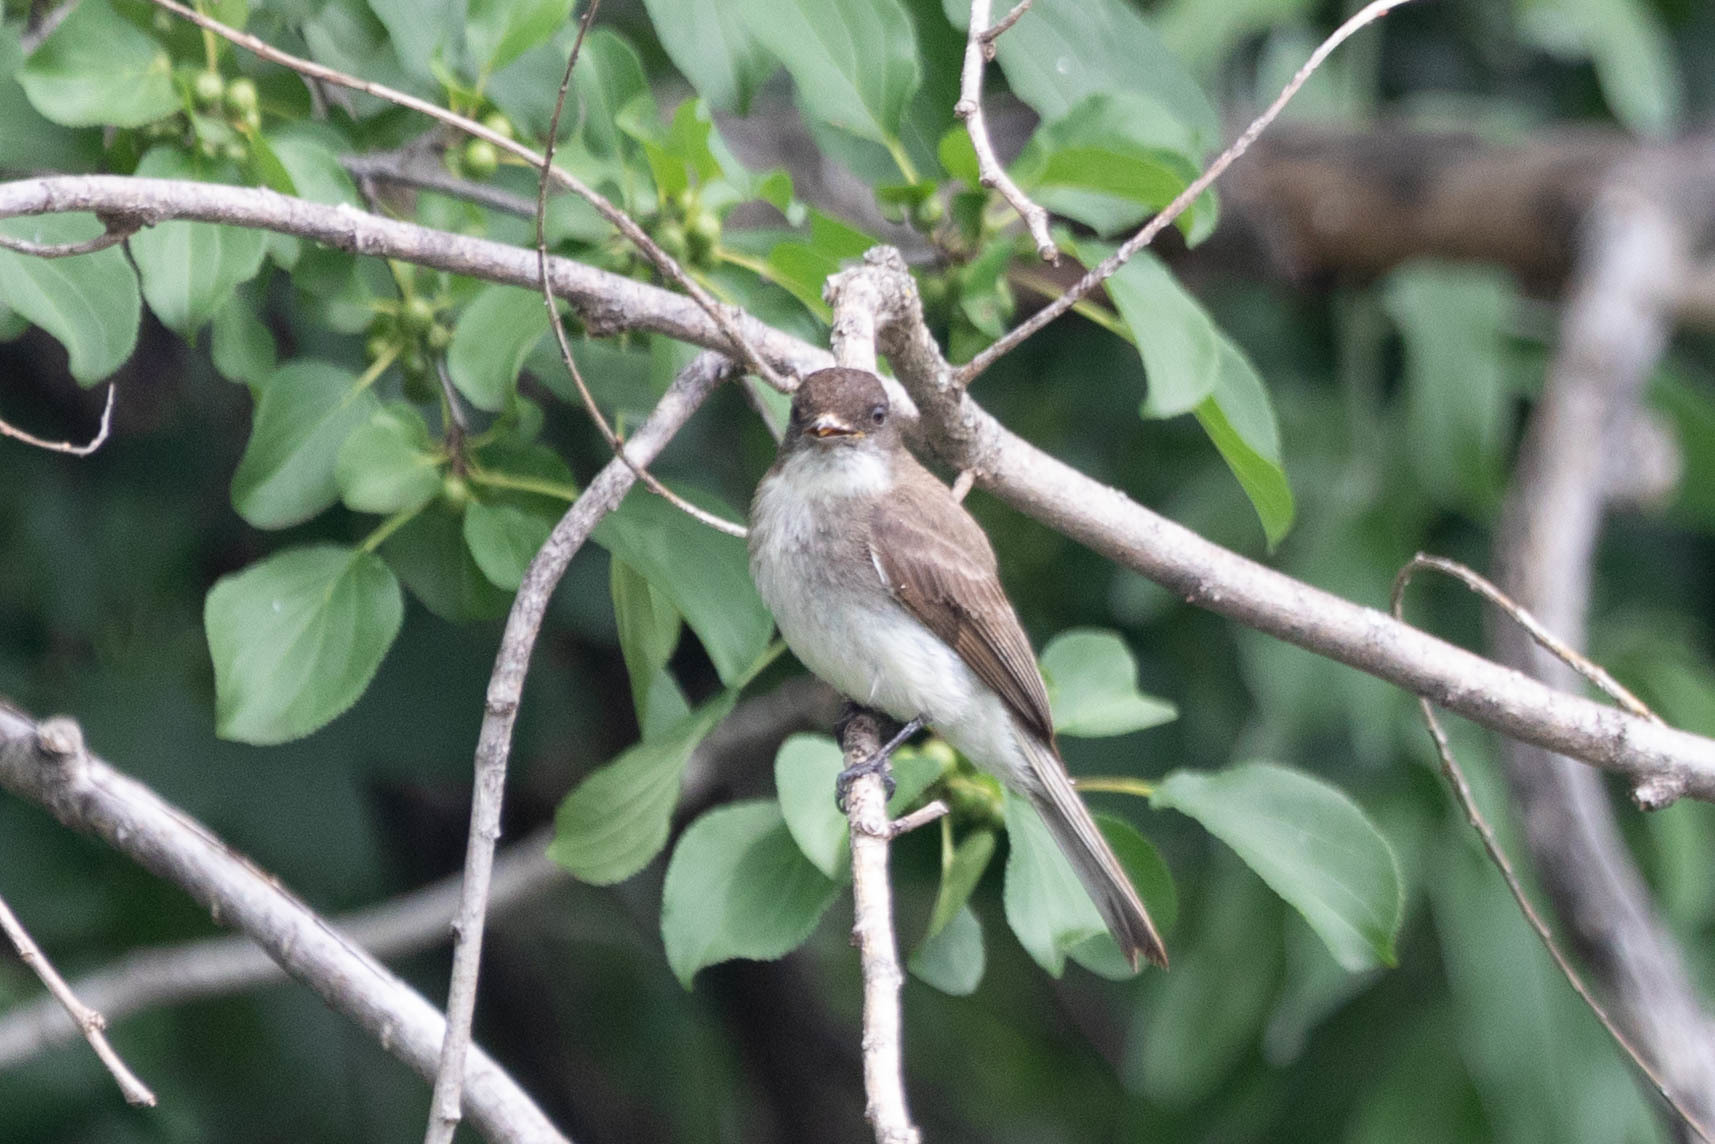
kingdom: Animalia
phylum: Chordata
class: Aves
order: Passeriformes
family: Tyrannidae
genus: Sayornis
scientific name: Sayornis phoebe
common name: Eastern phoebe
